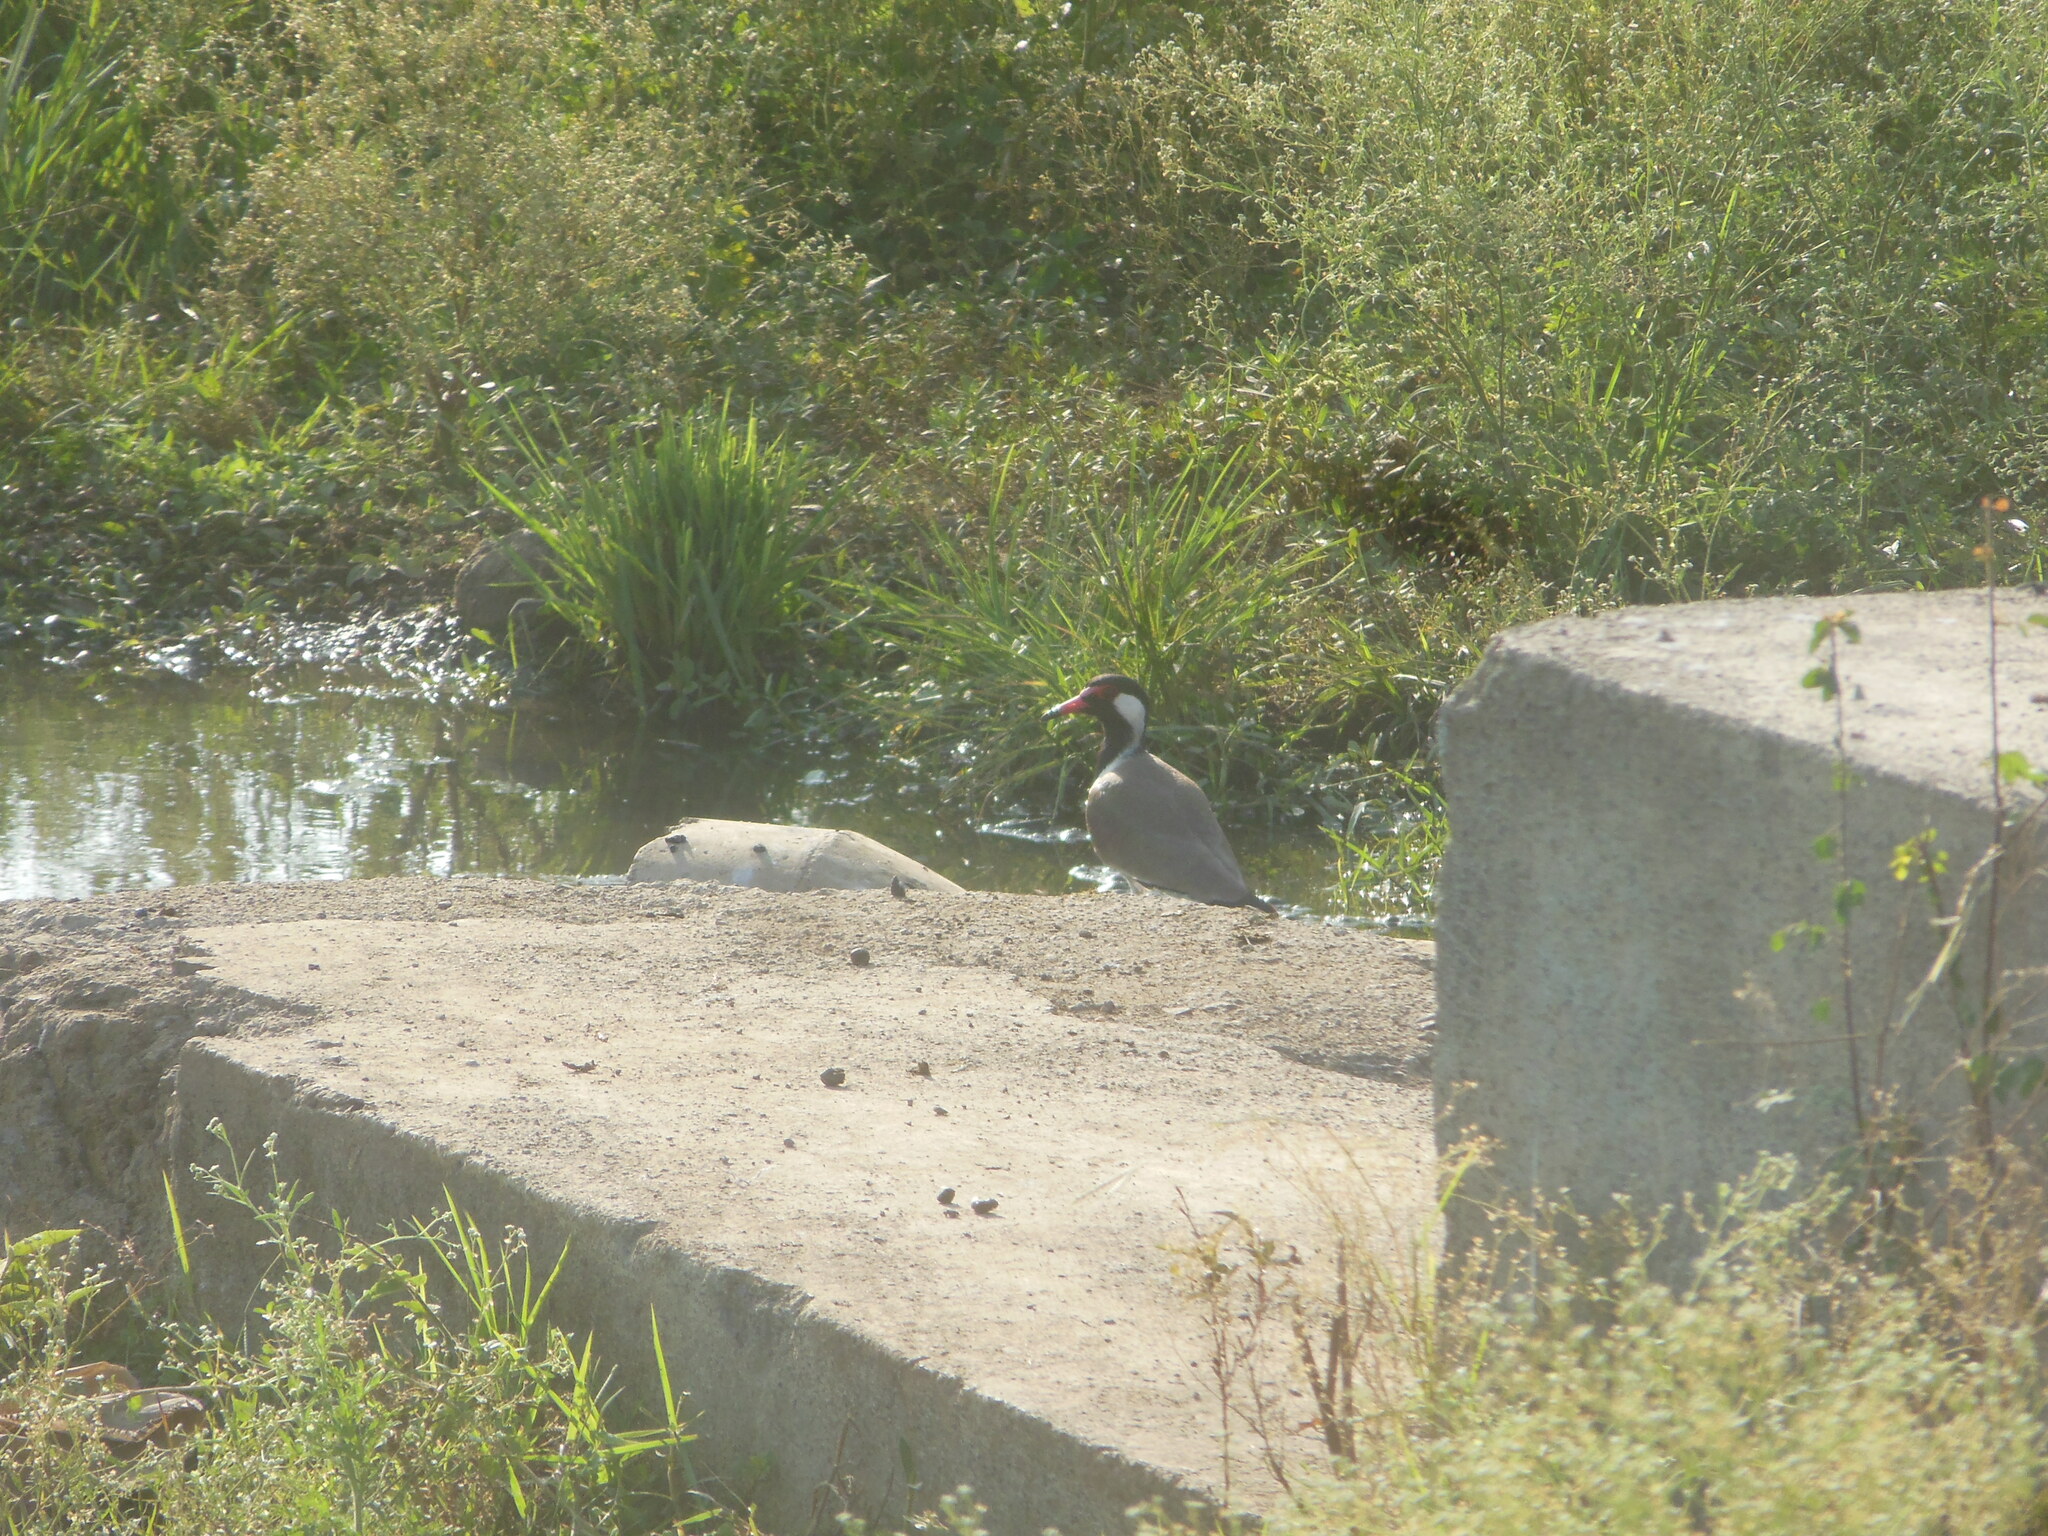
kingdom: Animalia
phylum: Chordata
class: Aves
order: Charadriiformes
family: Charadriidae
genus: Vanellus
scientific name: Vanellus indicus
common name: Red-wattled lapwing
